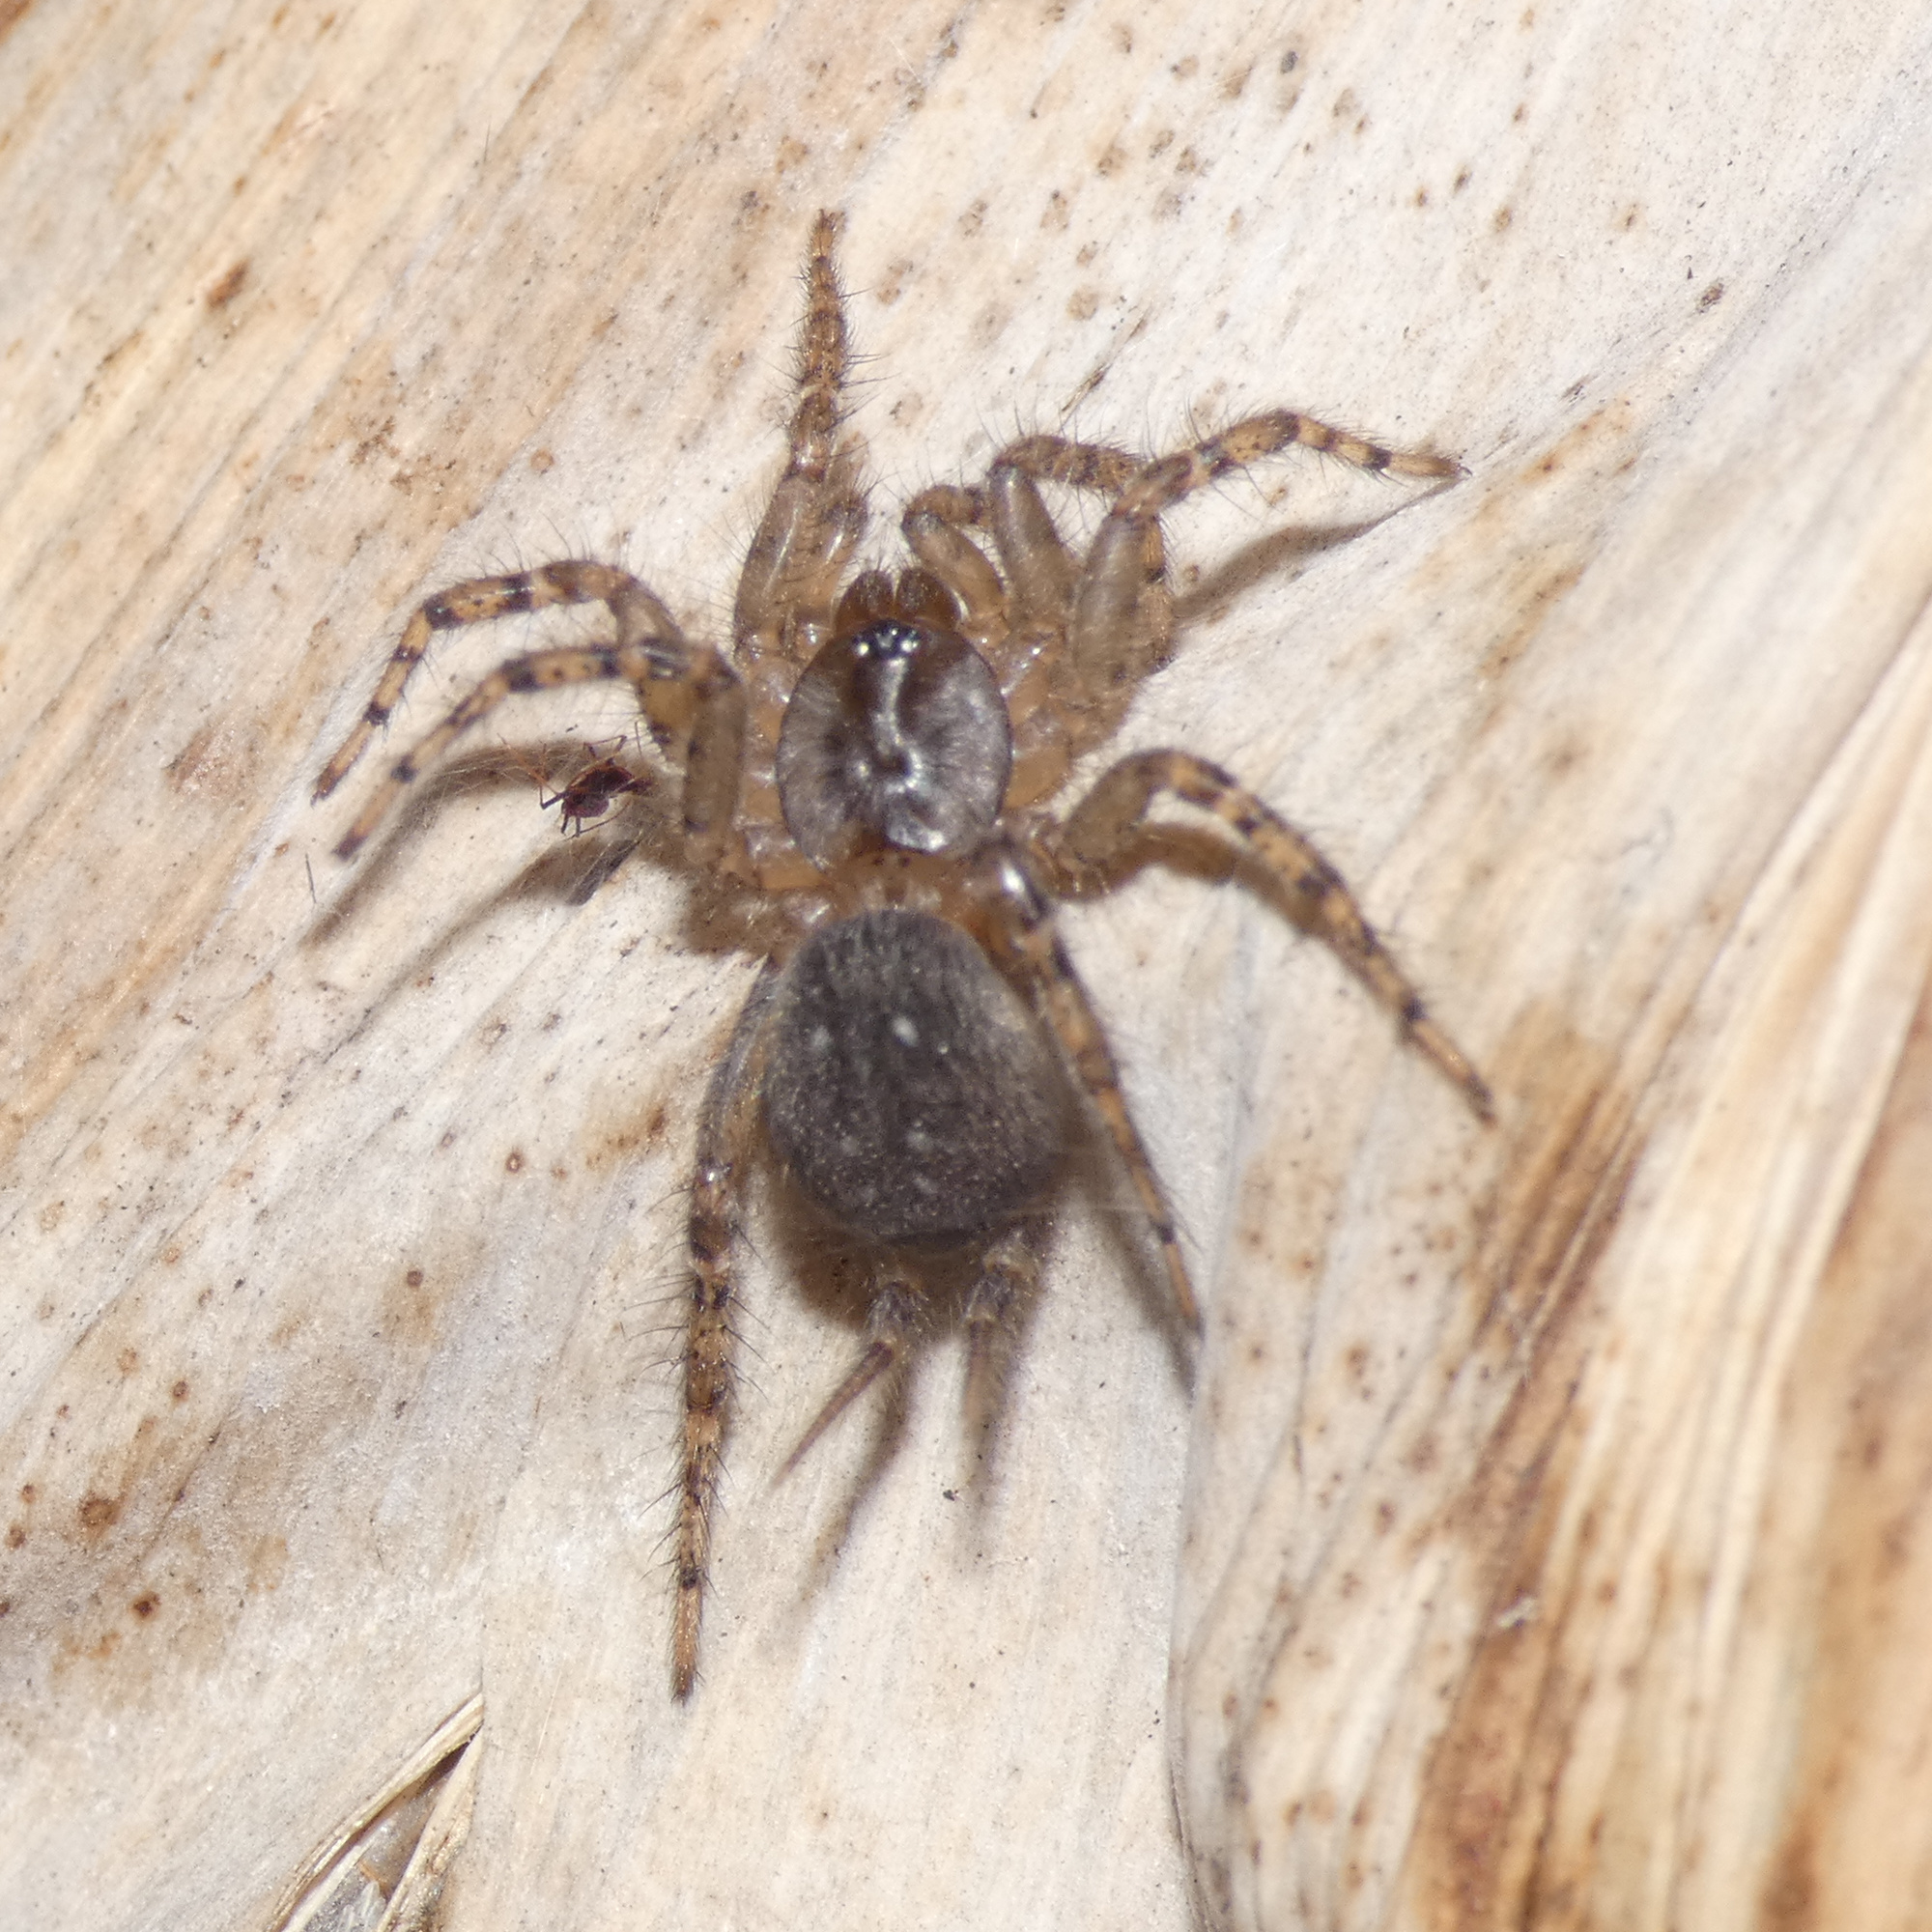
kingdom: Animalia
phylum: Arthropoda
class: Arachnida
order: Araneae
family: Ischnothelidae
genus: Thelechoris
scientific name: Thelechoris striatipes
